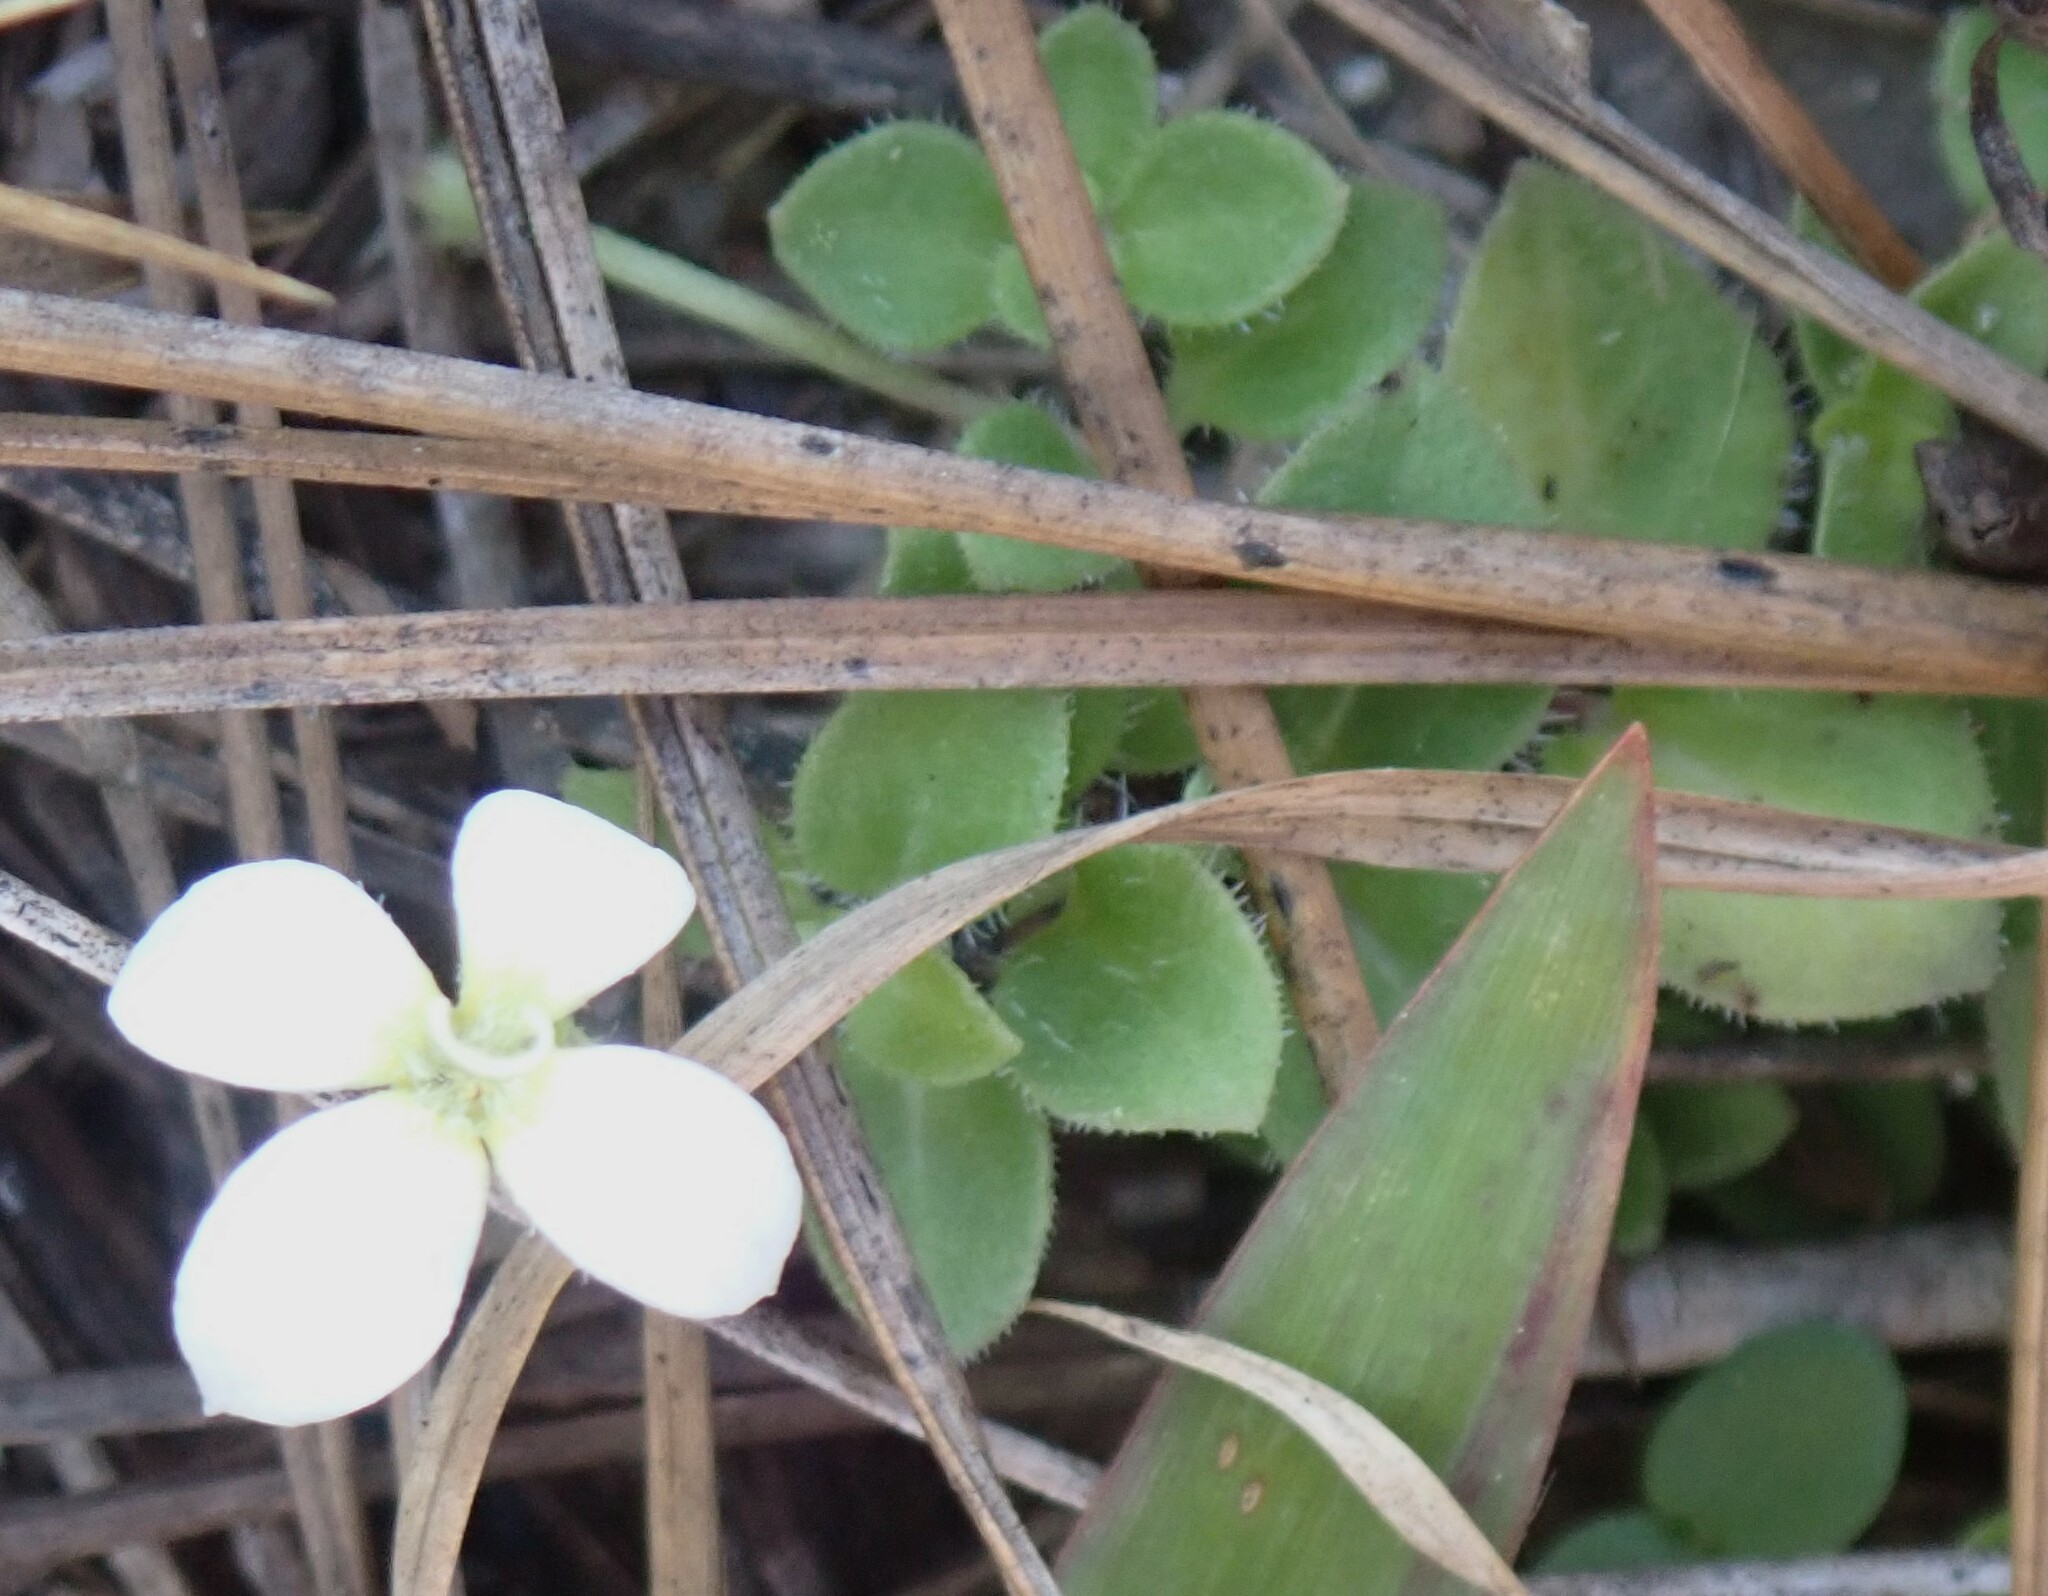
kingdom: Plantae
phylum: Tracheophyta
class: Magnoliopsida
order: Gentianales
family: Rubiaceae
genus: Houstonia
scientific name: Houstonia procumbens
